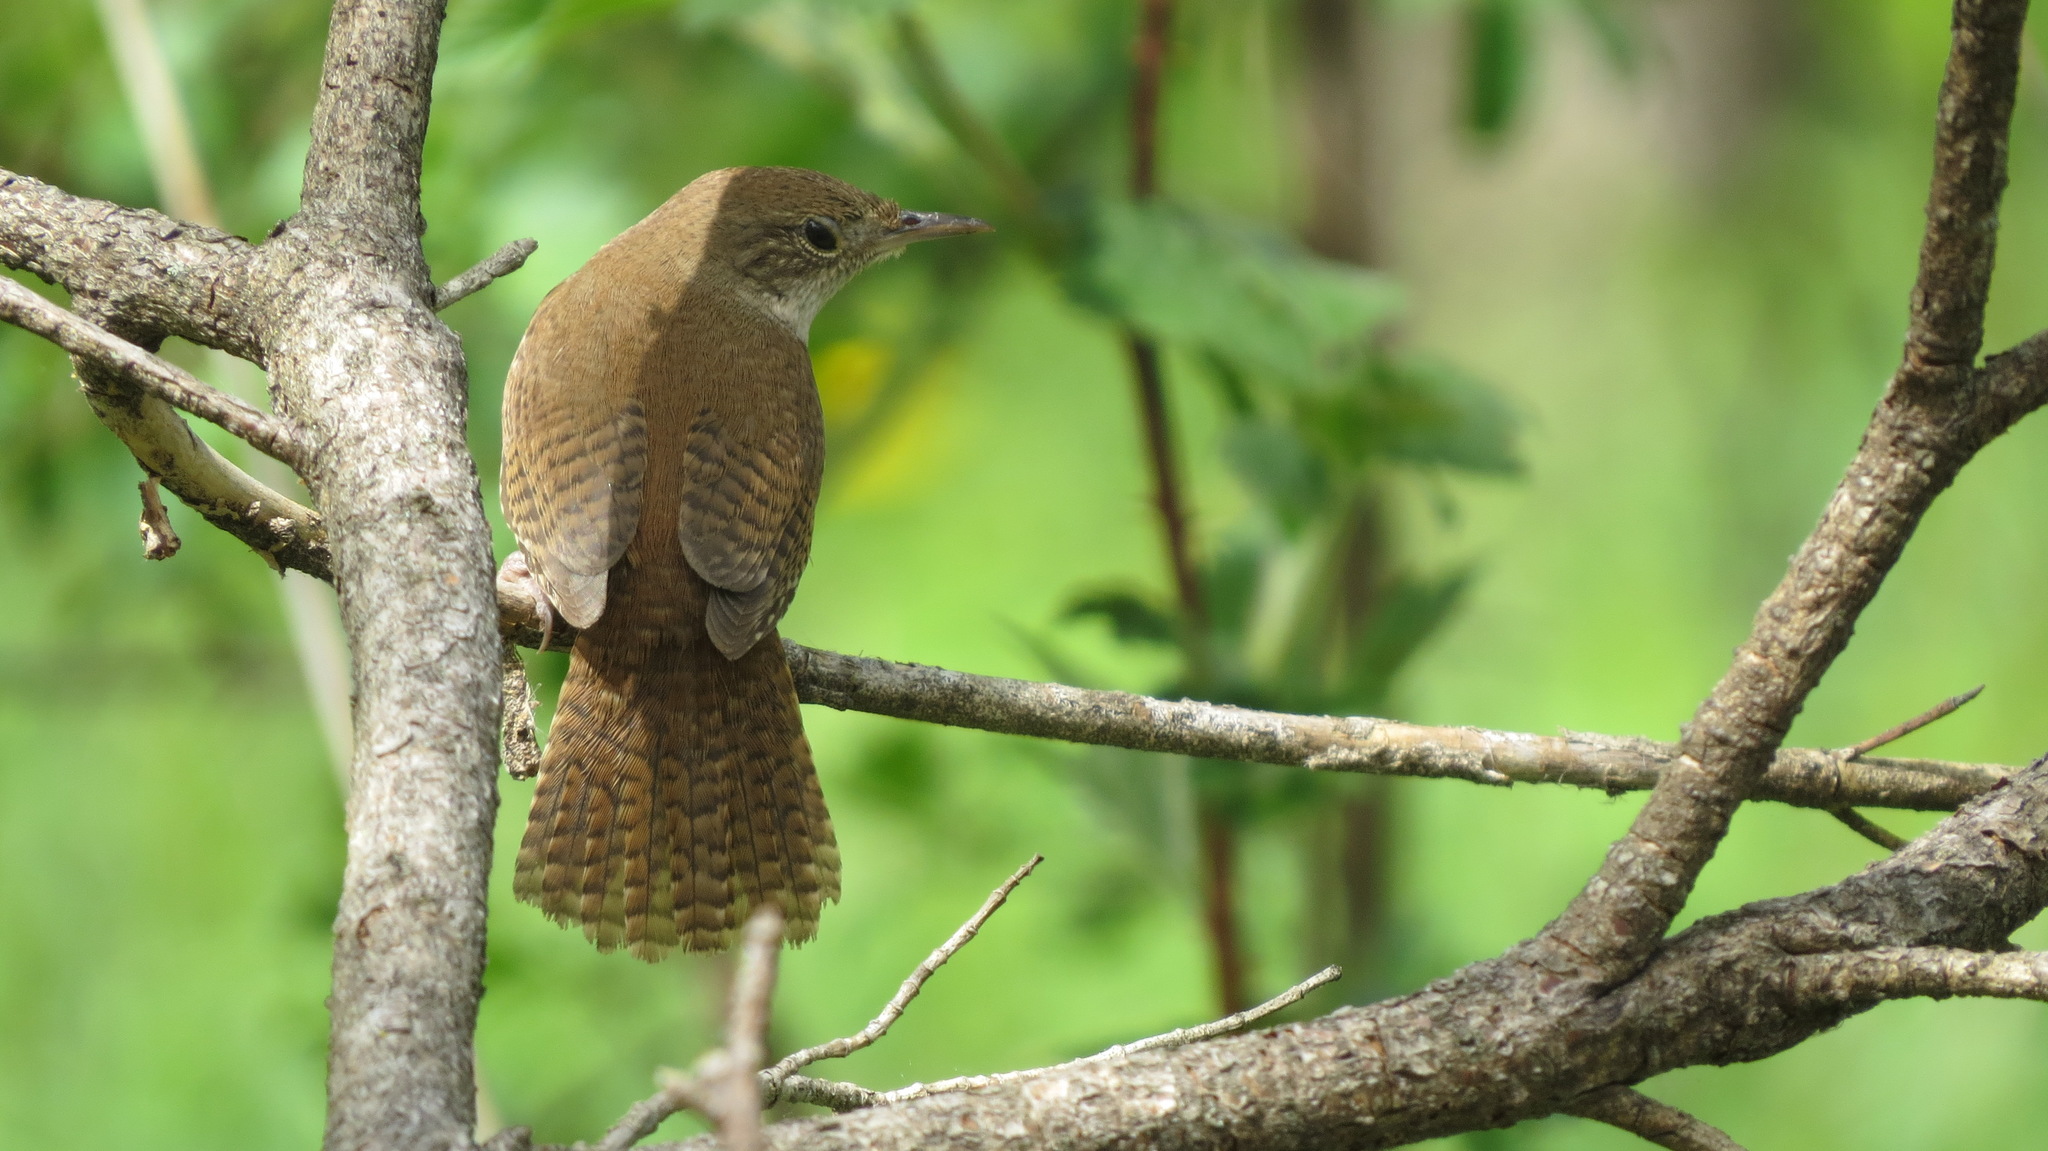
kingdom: Animalia
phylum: Chordata
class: Aves
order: Passeriformes
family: Troglodytidae
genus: Troglodytes
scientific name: Troglodytes aedon
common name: House wren
